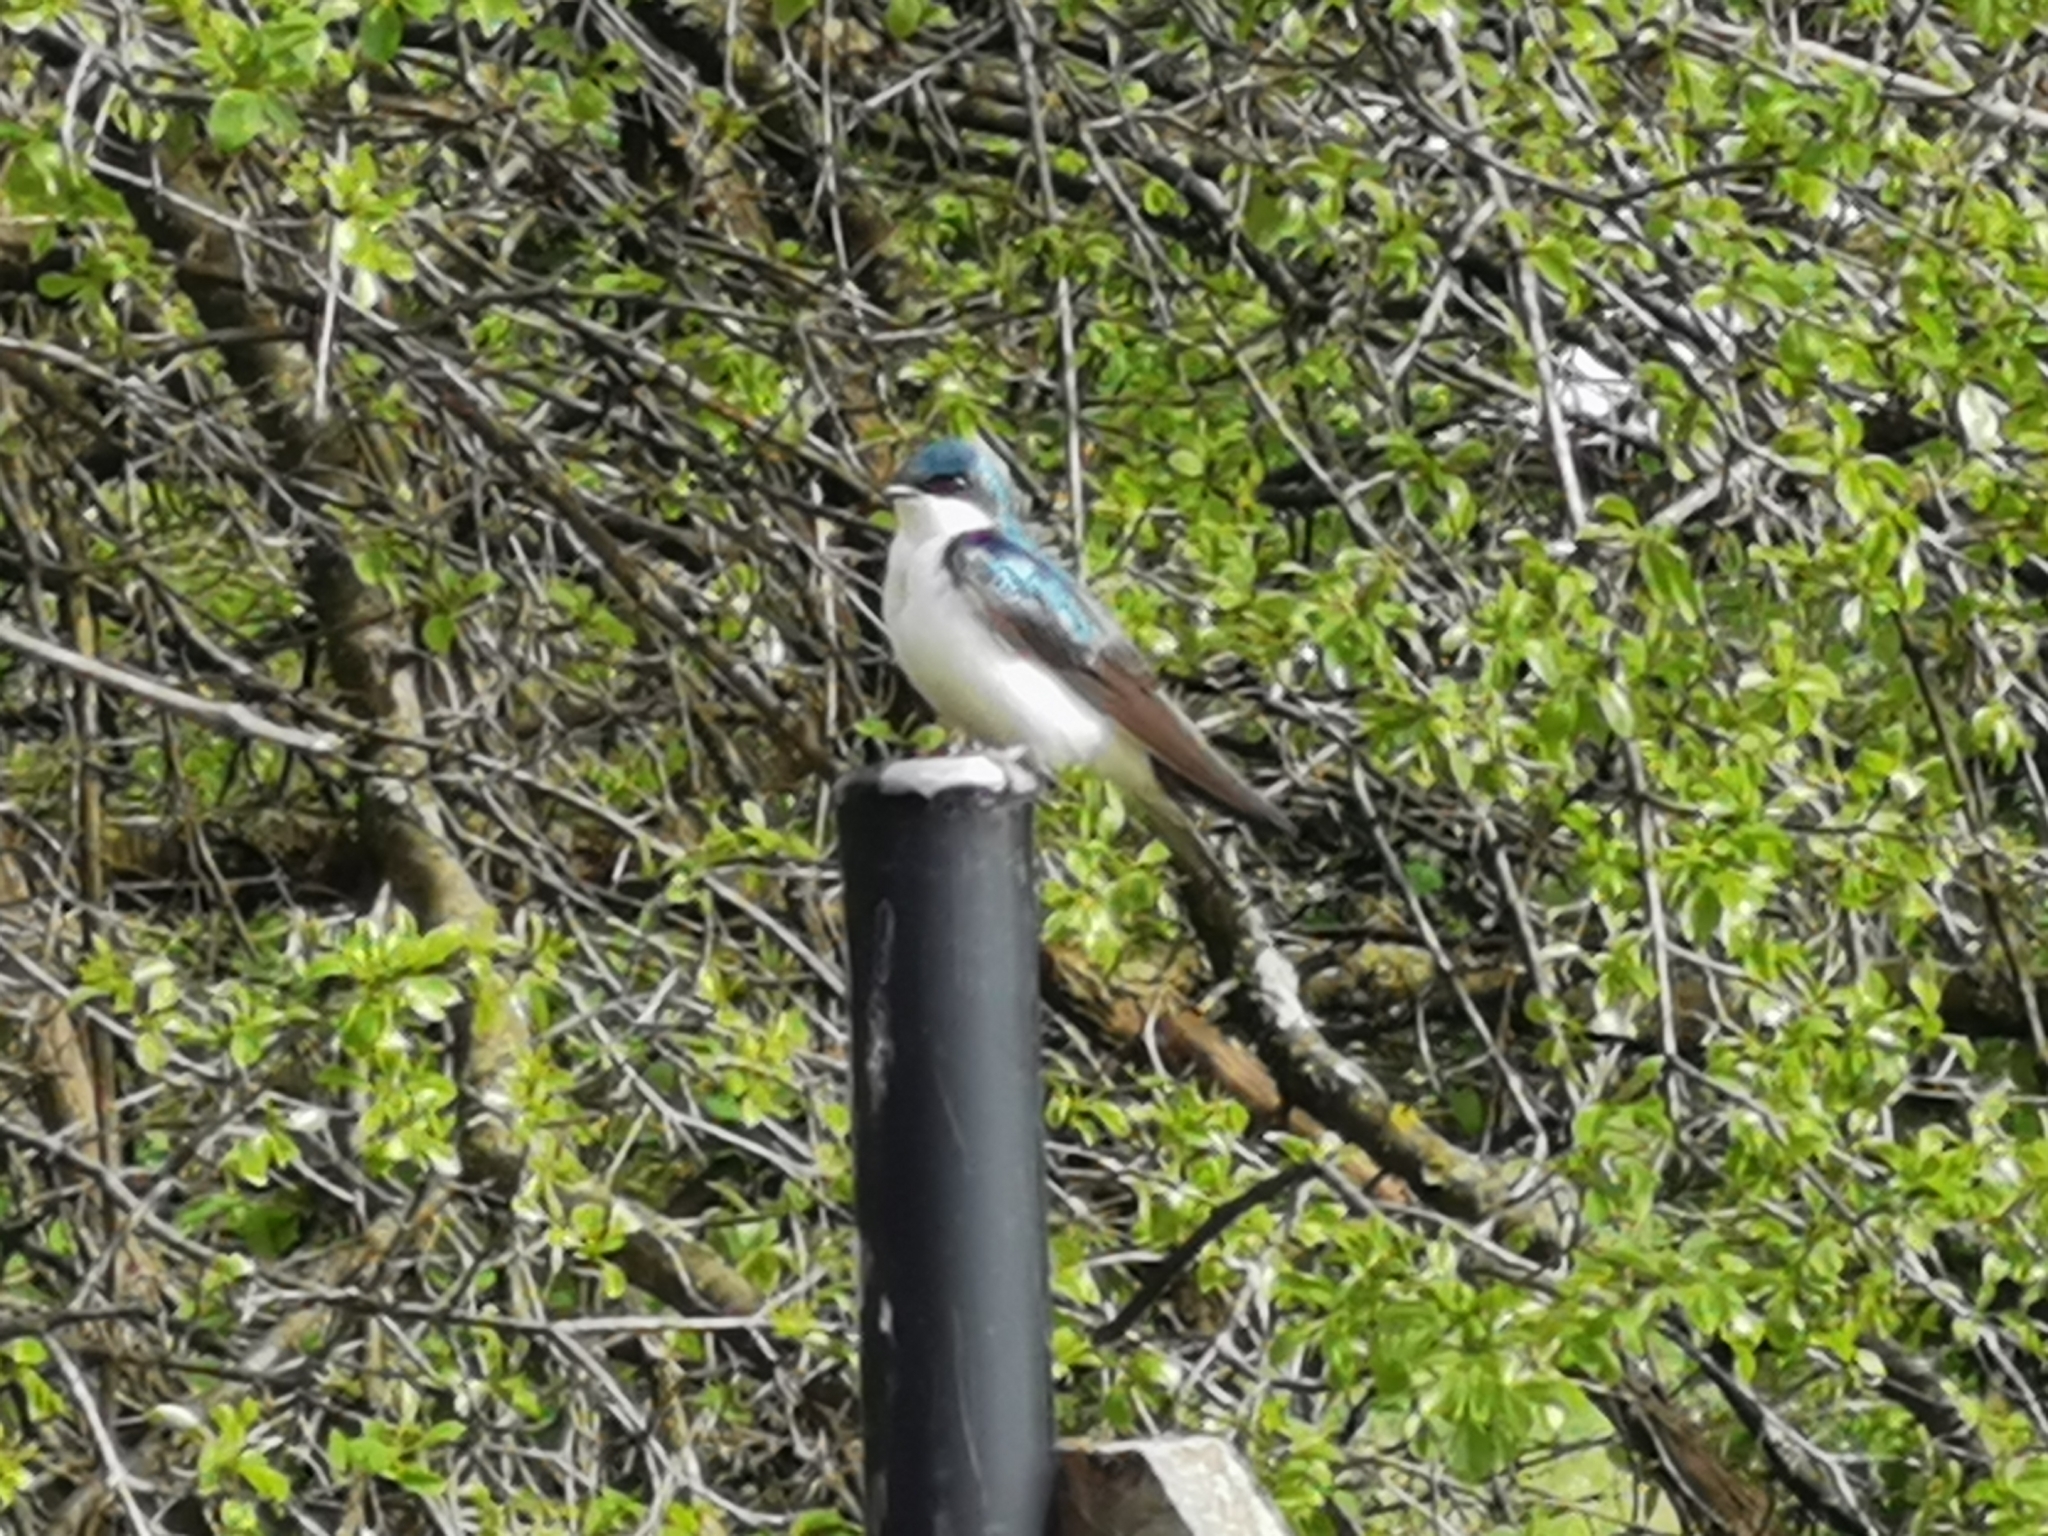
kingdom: Animalia
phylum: Chordata
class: Aves
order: Passeriformes
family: Hirundinidae
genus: Tachycineta
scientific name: Tachycineta bicolor
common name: Tree swallow
